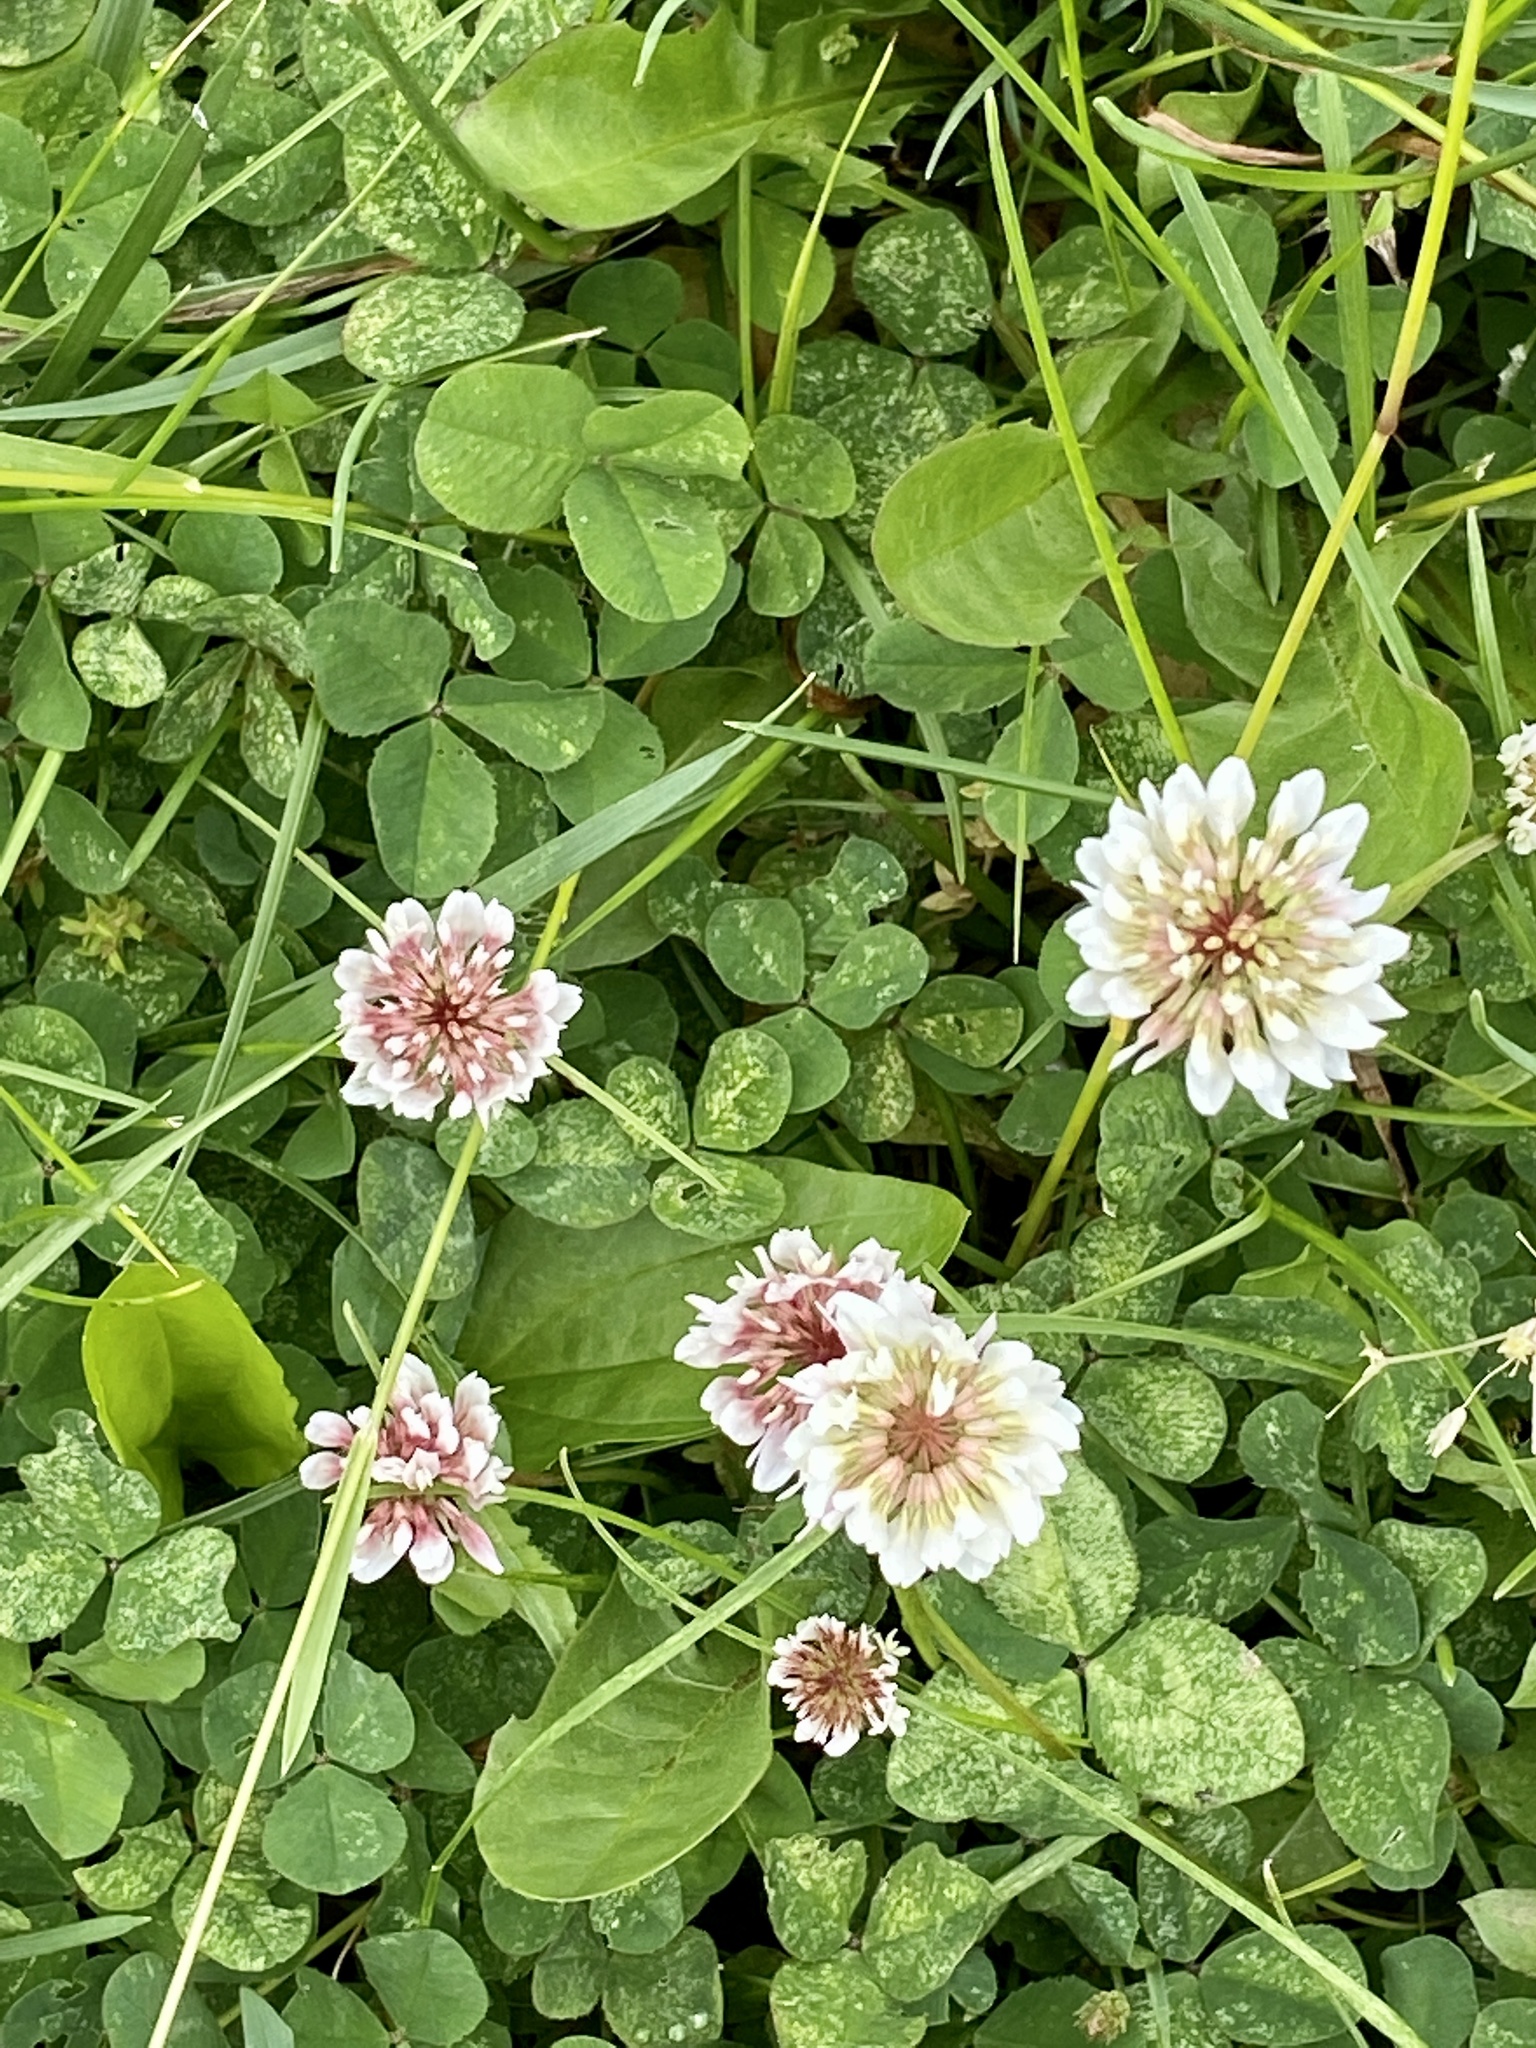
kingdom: Plantae
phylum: Tracheophyta
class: Magnoliopsida
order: Fabales
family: Fabaceae
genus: Trifolium
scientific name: Trifolium repens
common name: White clover
